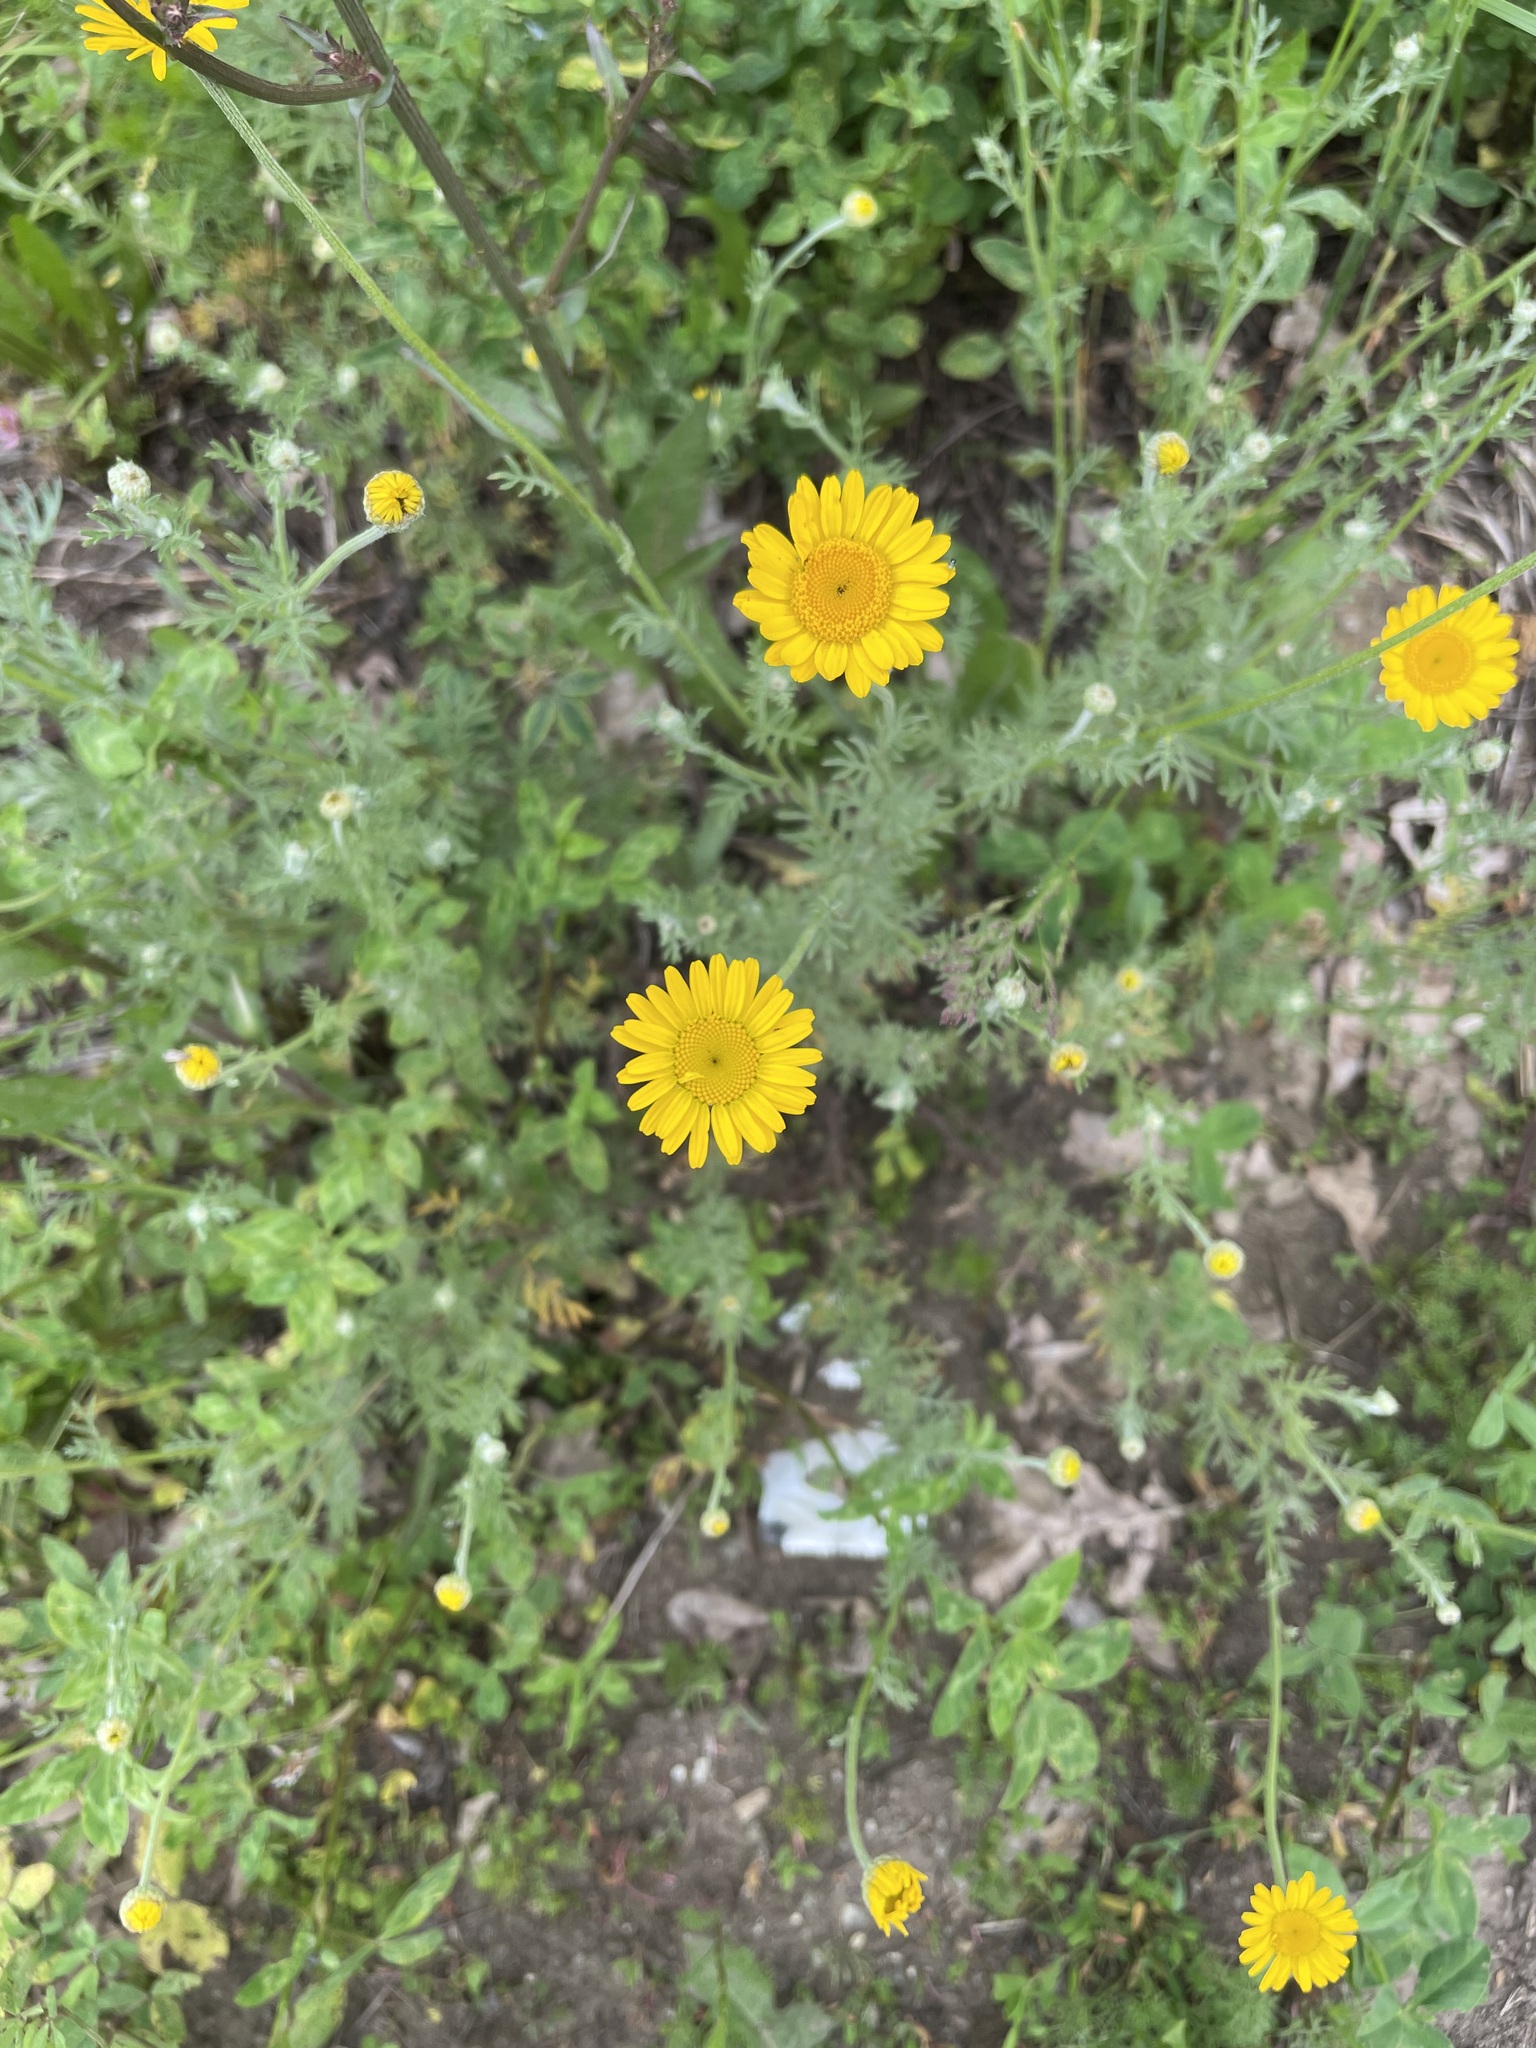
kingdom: Plantae
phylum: Tracheophyta
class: Magnoliopsida
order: Asterales
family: Asteraceae
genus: Cota
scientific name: Cota tinctoria
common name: Golden chamomile
